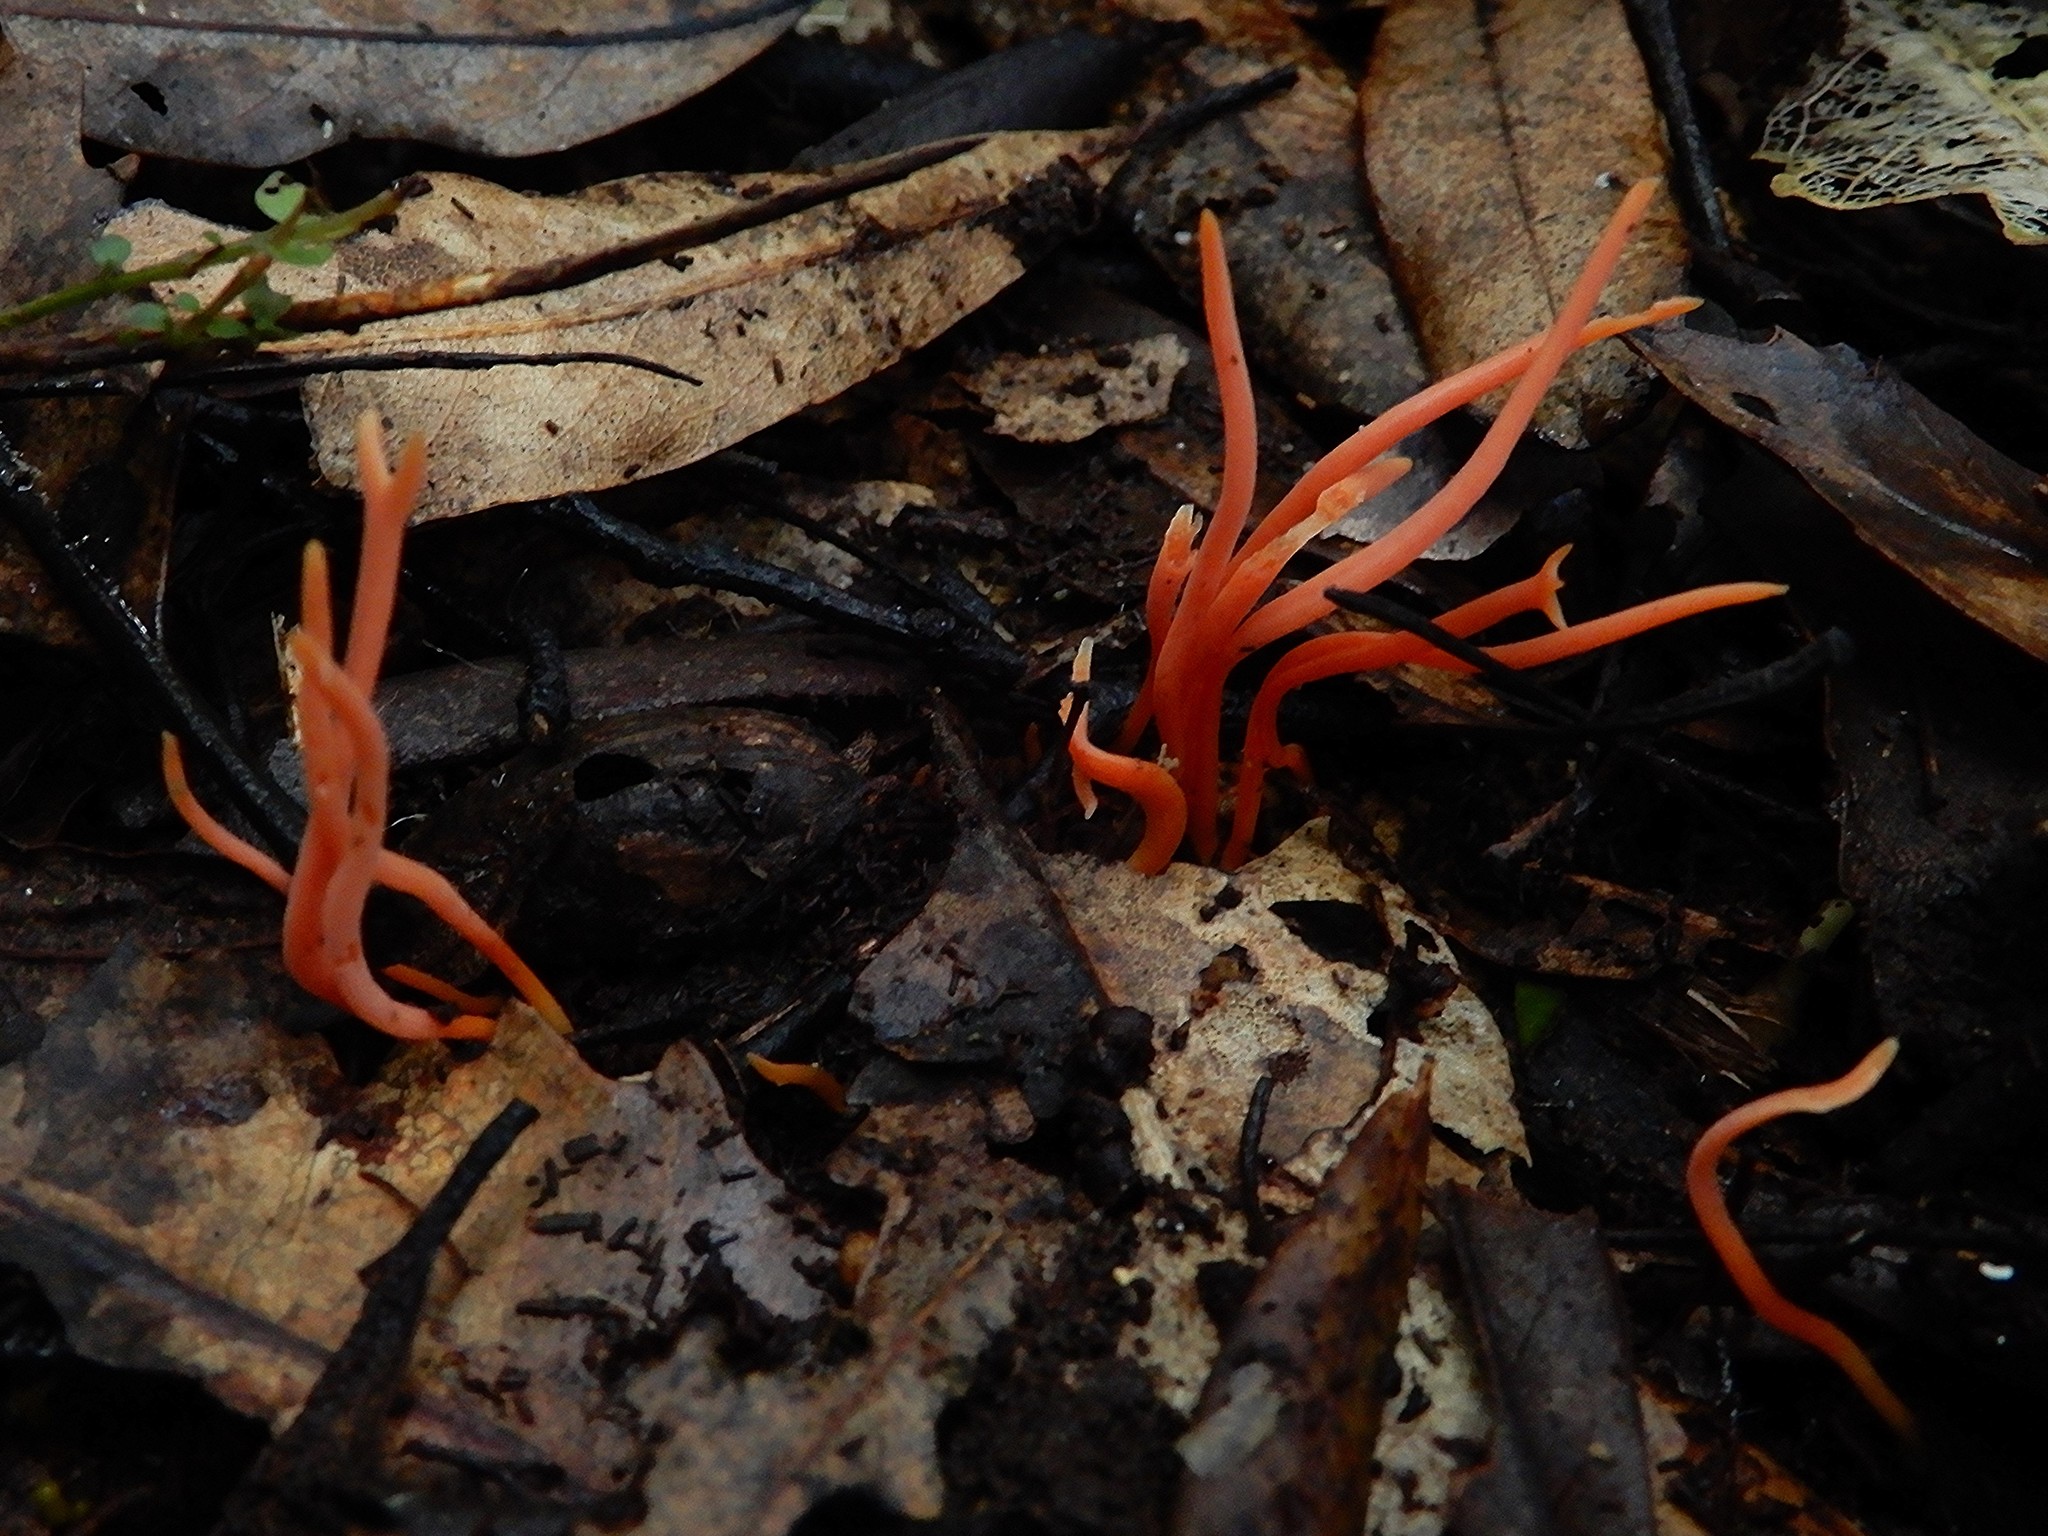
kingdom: Fungi
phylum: Basidiomycota
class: Agaricomycetes
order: Agaricales
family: Clavariaceae
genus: Clavulinopsis
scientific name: Clavulinopsis
